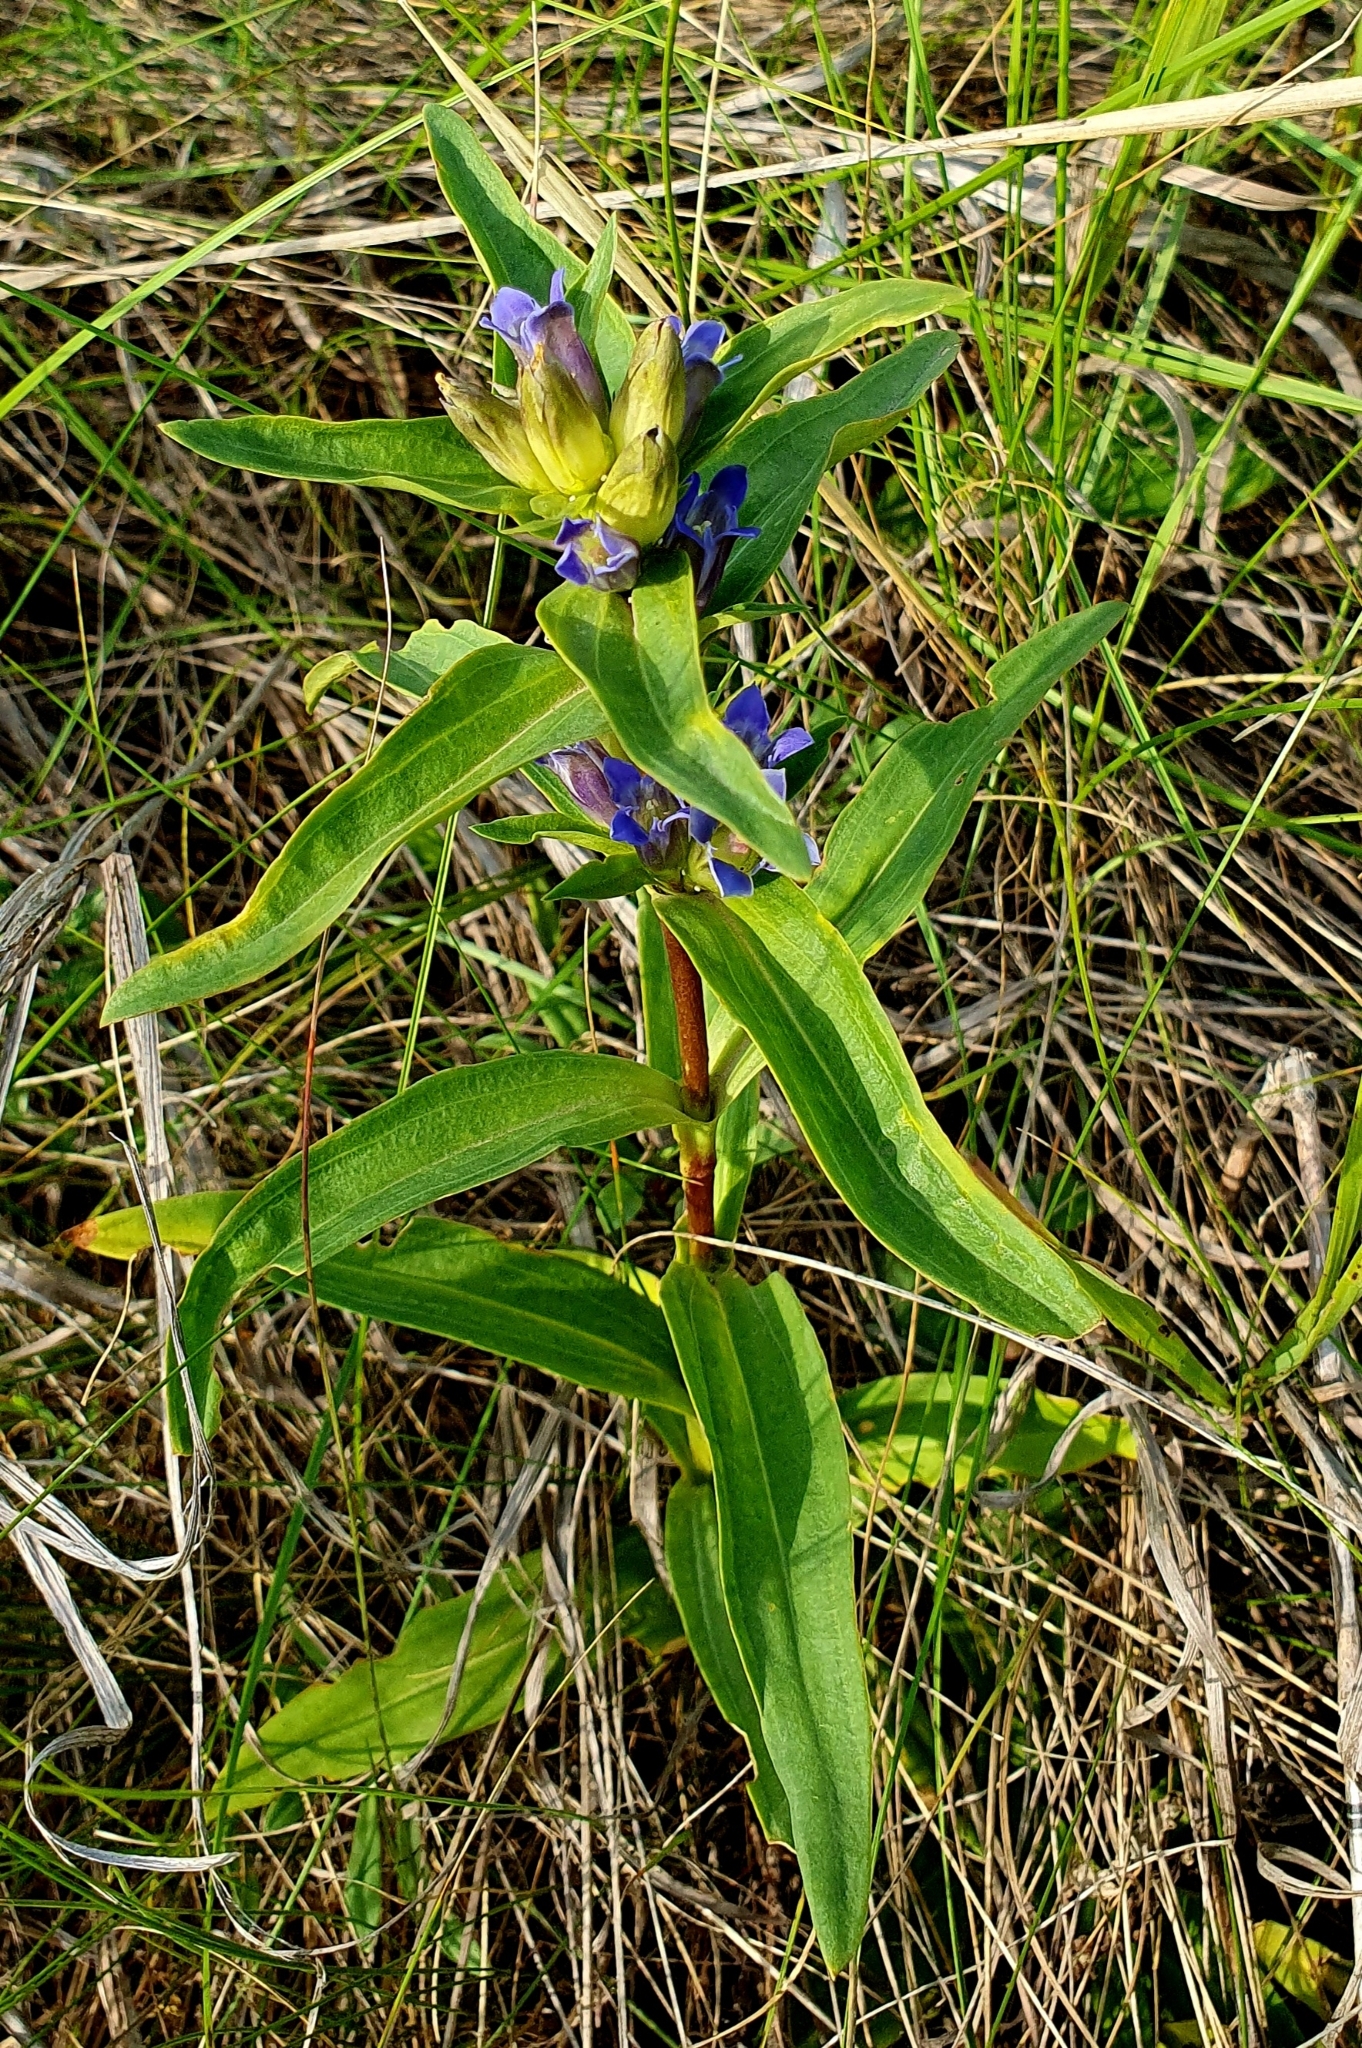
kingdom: Plantae
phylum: Tracheophyta
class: Magnoliopsida
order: Gentianales
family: Gentianaceae
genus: Gentiana
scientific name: Gentiana cruciata
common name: Cross gentian
